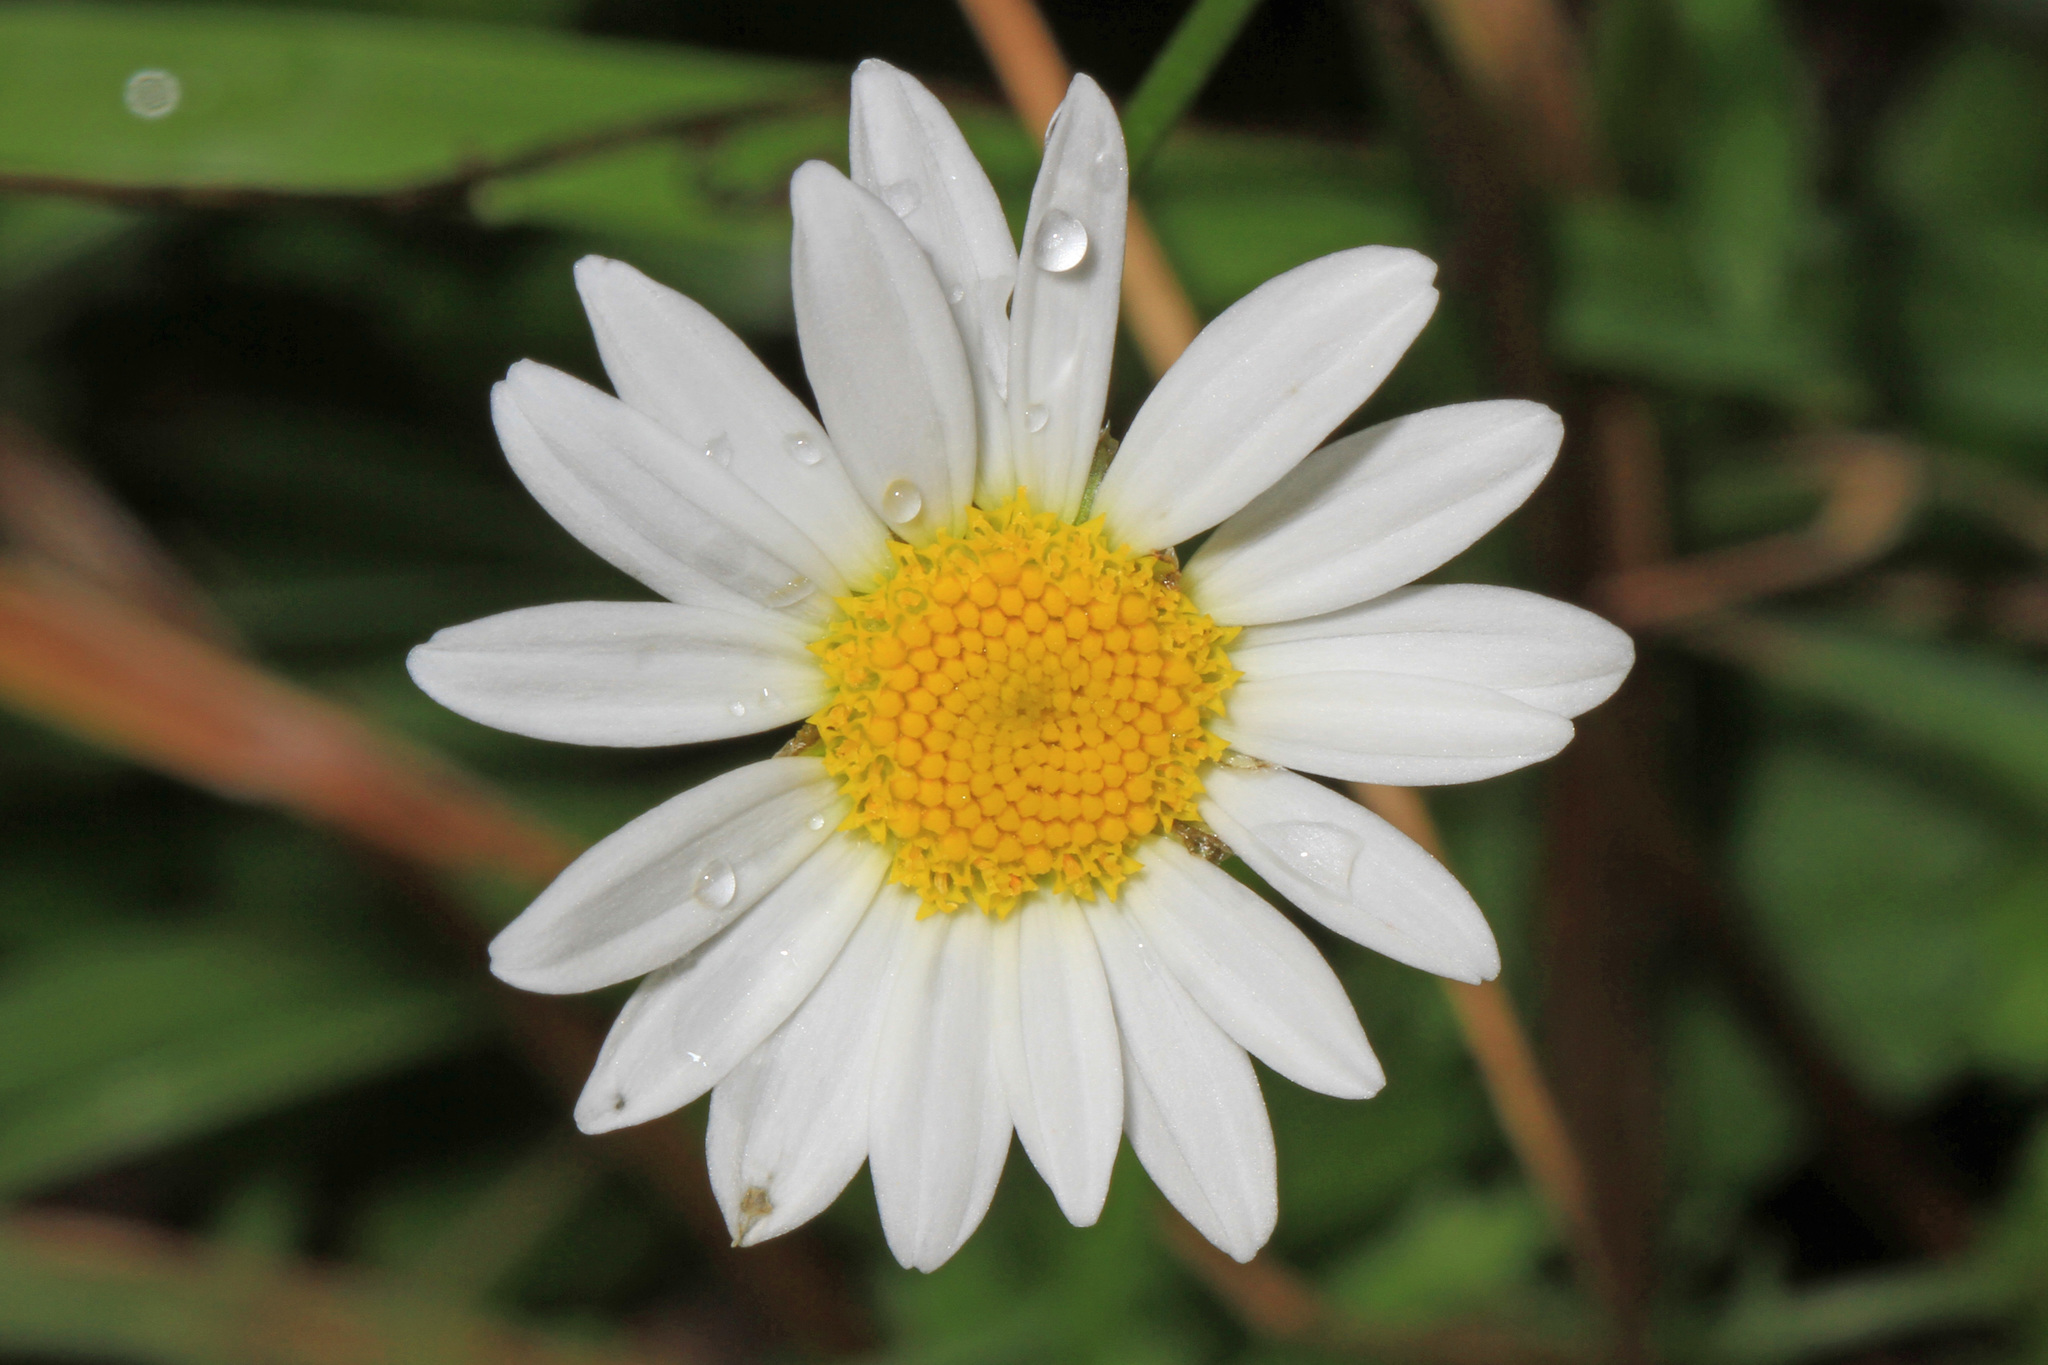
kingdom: Plantae
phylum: Tracheophyta
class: Magnoliopsida
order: Asterales
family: Asteraceae
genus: Leucanthemum
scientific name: Leucanthemum vulgare
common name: Oxeye daisy
